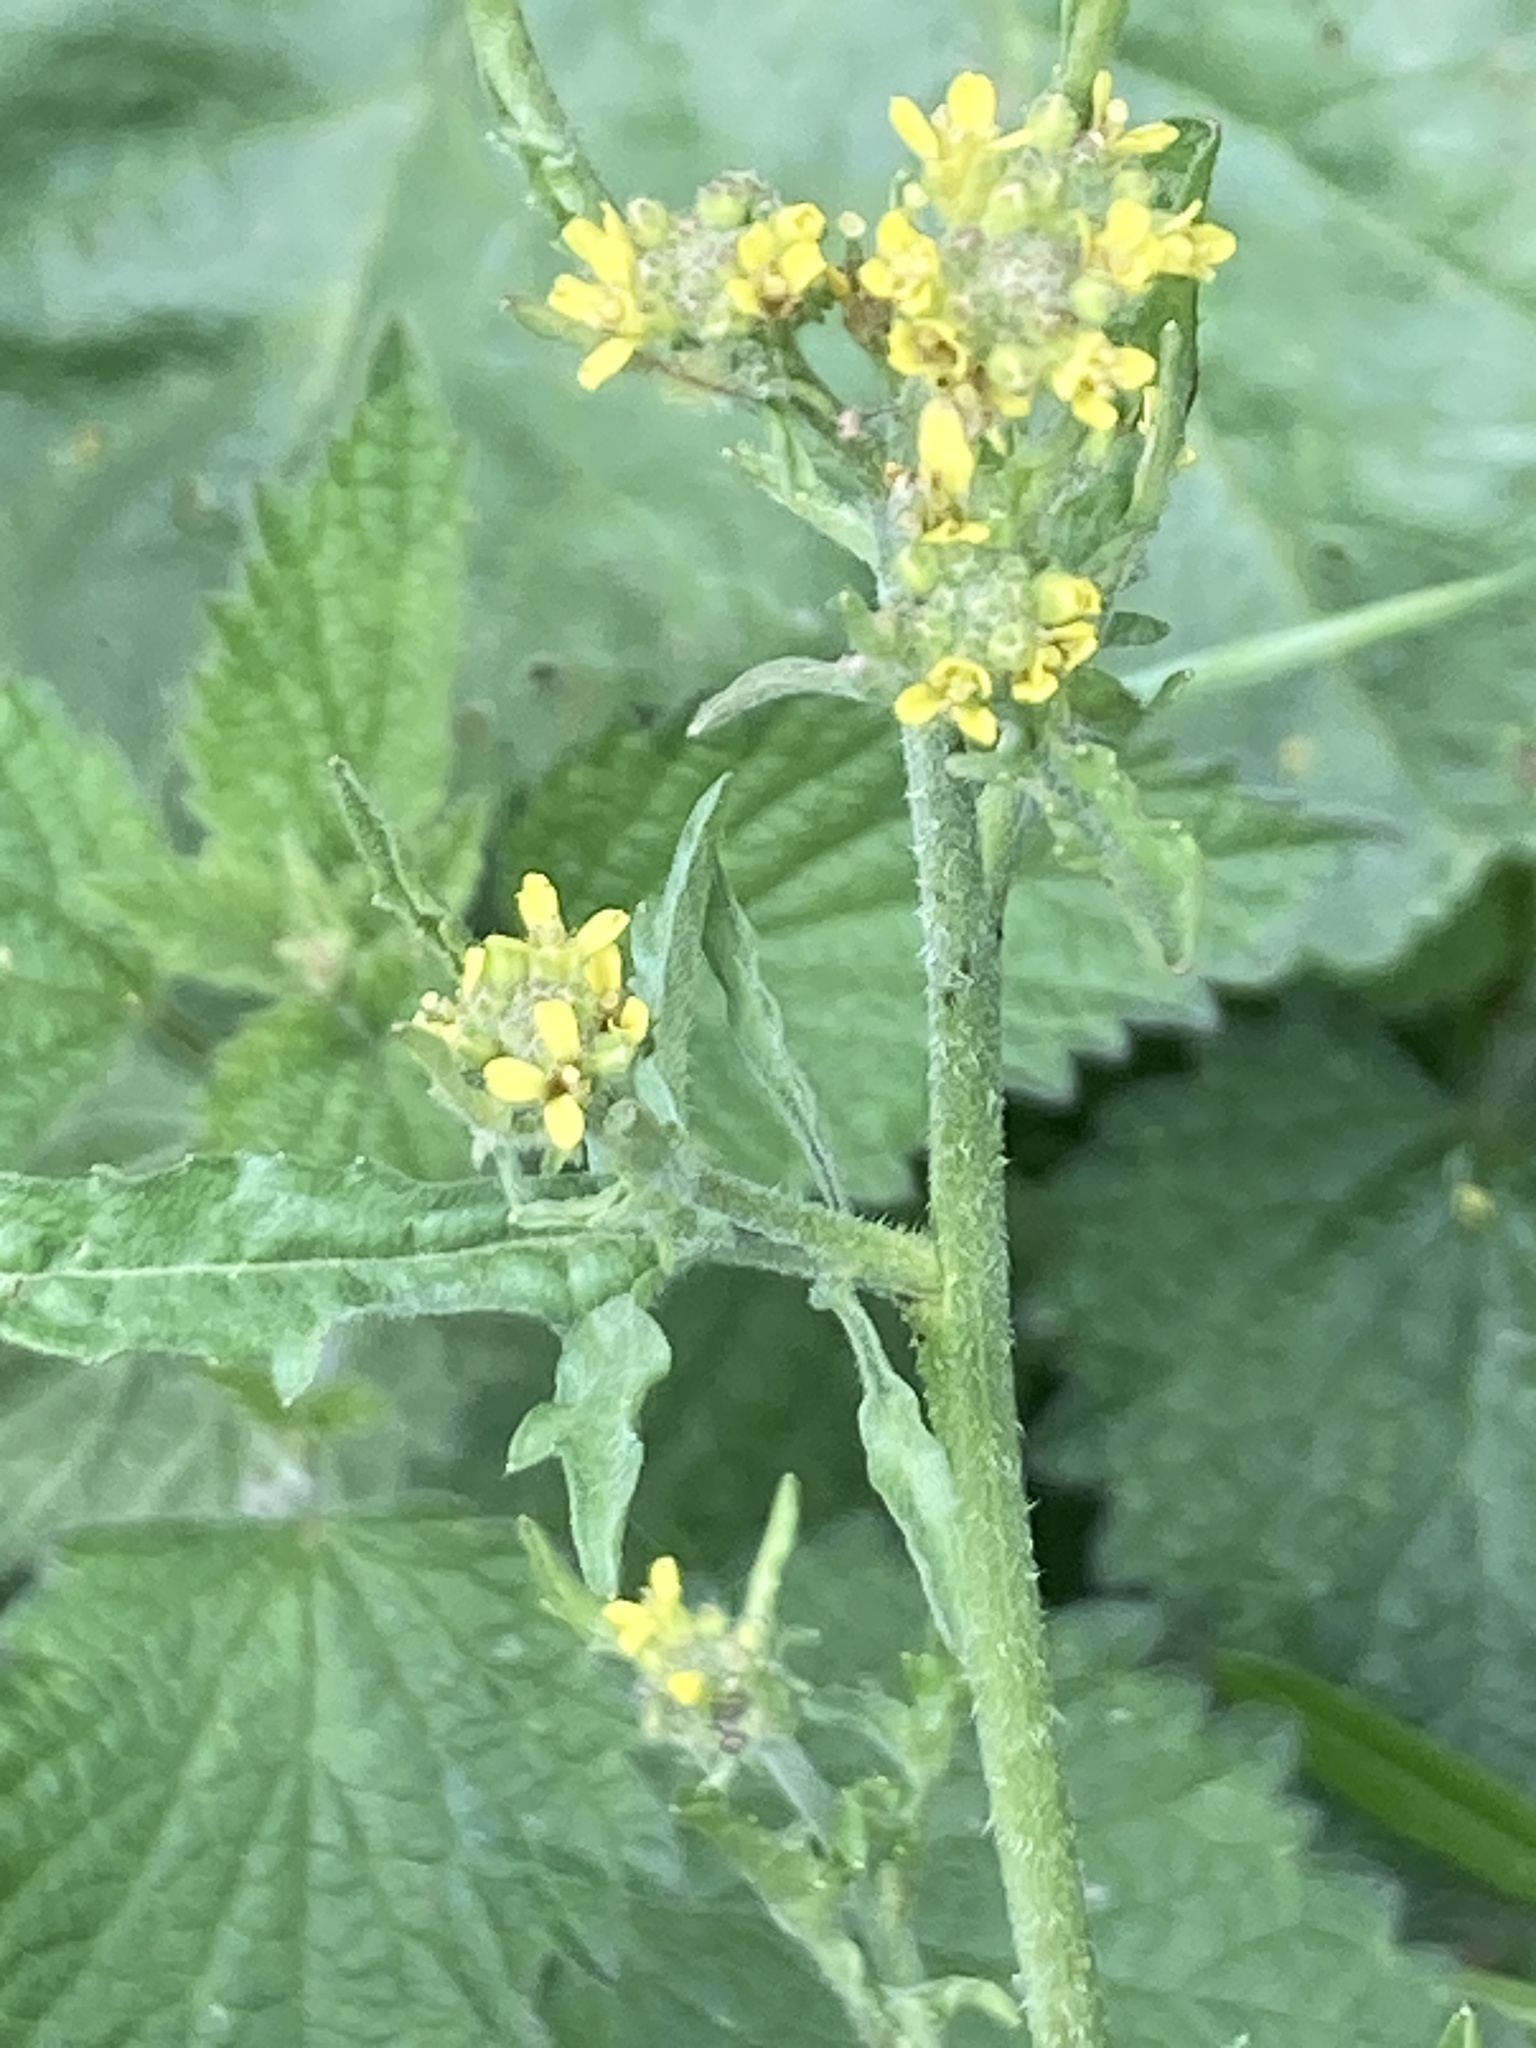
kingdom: Plantae
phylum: Tracheophyta
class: Magnoliopsida
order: Brassicales
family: Brassicaceae
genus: Sisymbrium
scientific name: Sisymbrium officinale
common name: Hedge mustard
